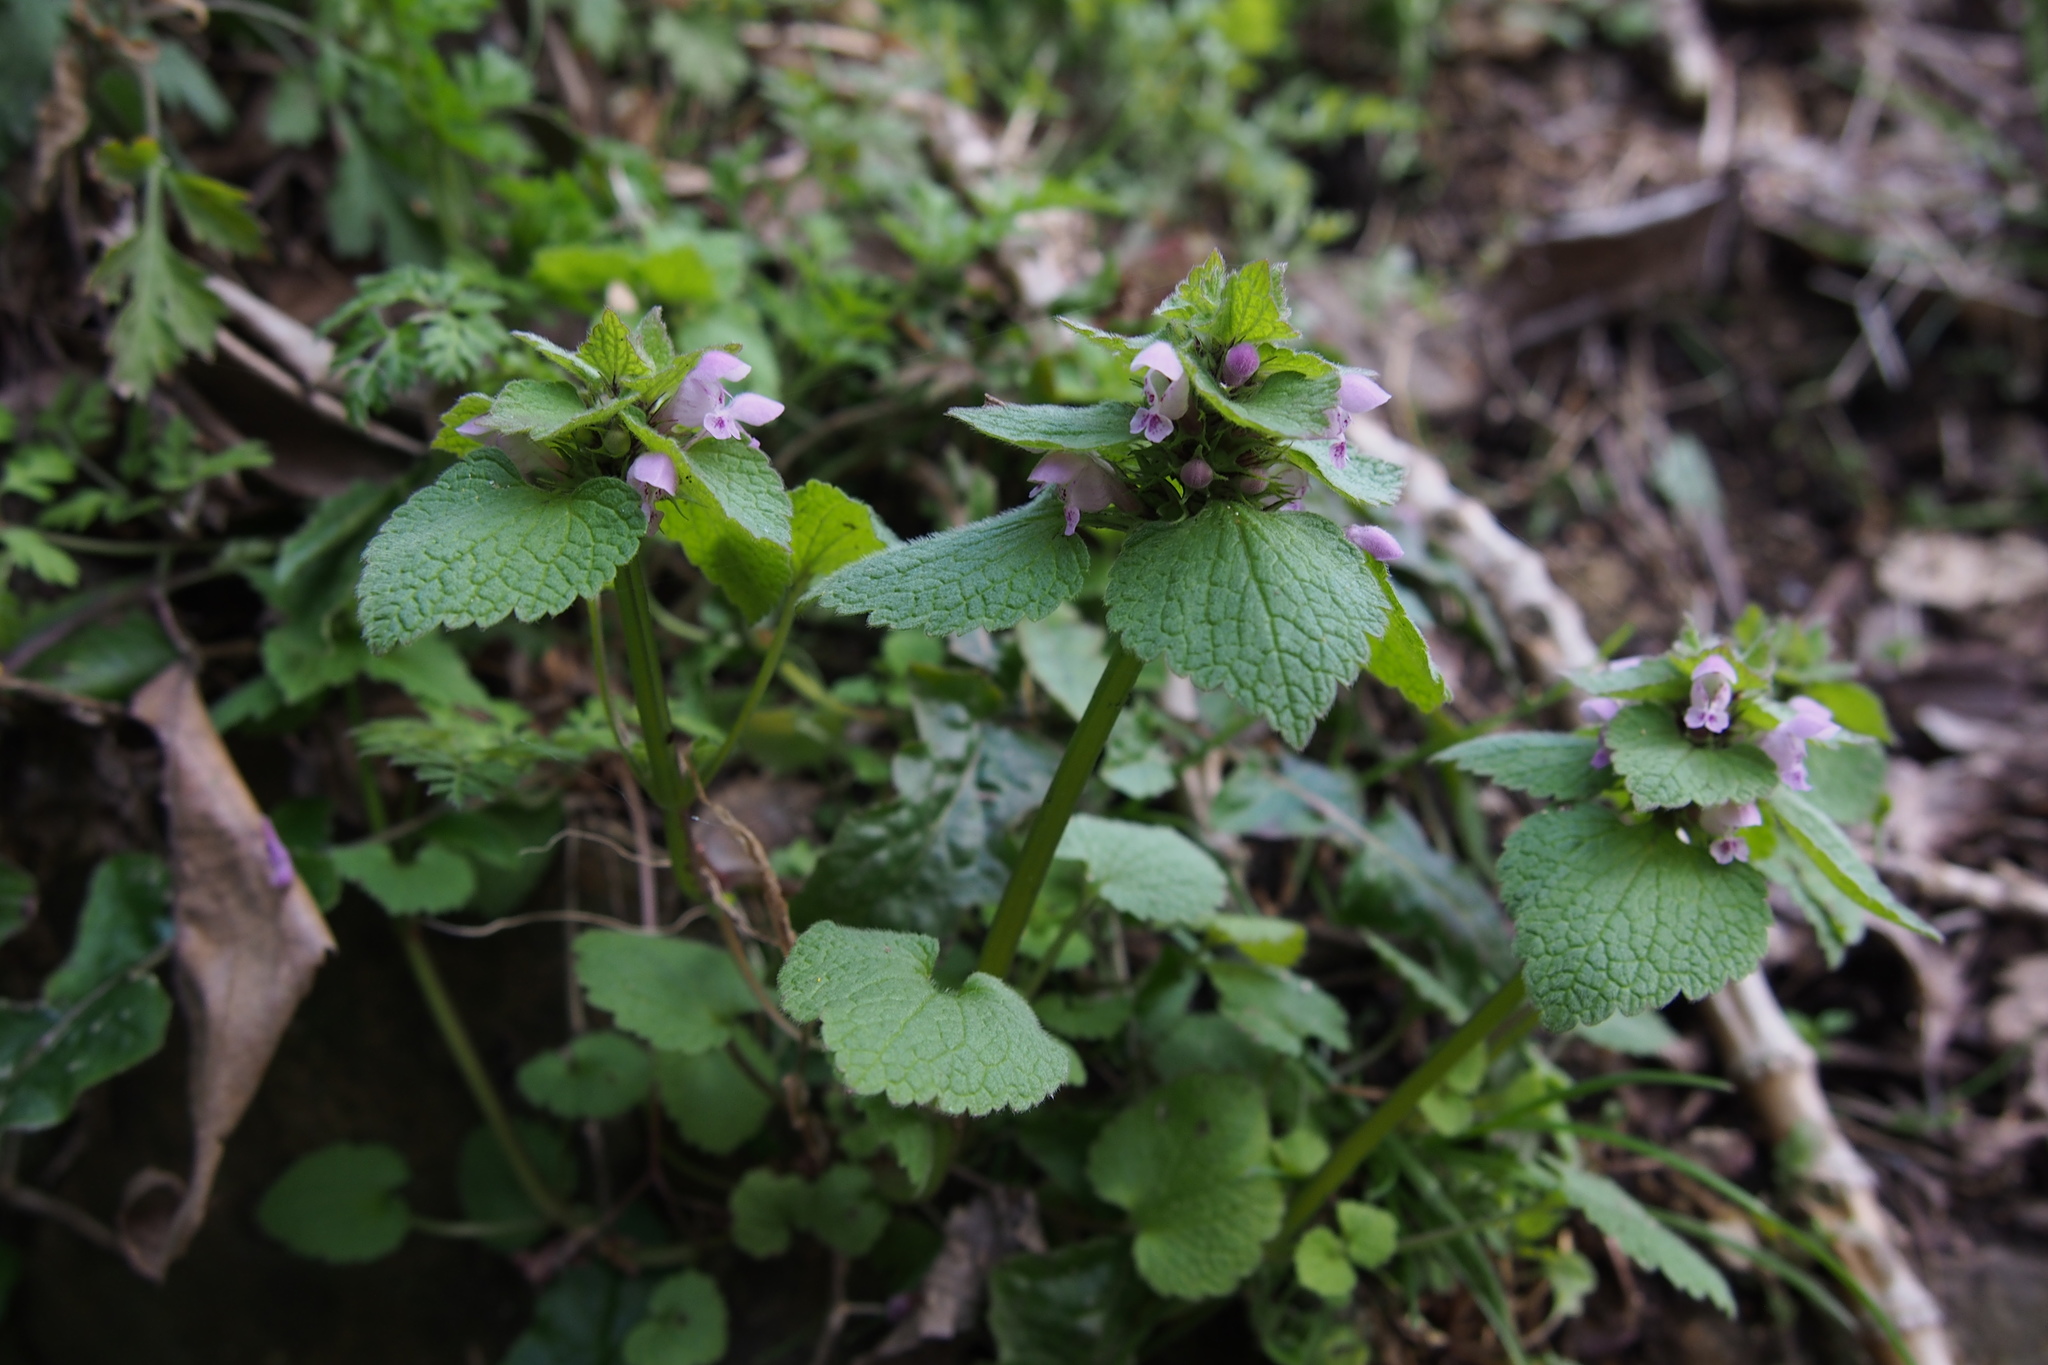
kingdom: Plantae
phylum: Tracheophyta
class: Magnoliopsida
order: Lamiales
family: Lamiaceae
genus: Lamium
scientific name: Lamium purpureum
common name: Red dead-nettle
